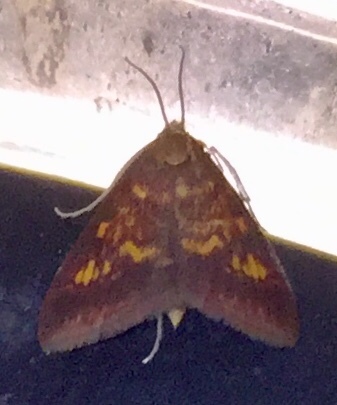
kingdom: Animalia
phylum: Arthropoda
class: Insecta
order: Lepidoptera
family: Crambidae
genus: Pyrausta
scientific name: Pyrausta acrionalis
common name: Mint-loving pyrausta moth
